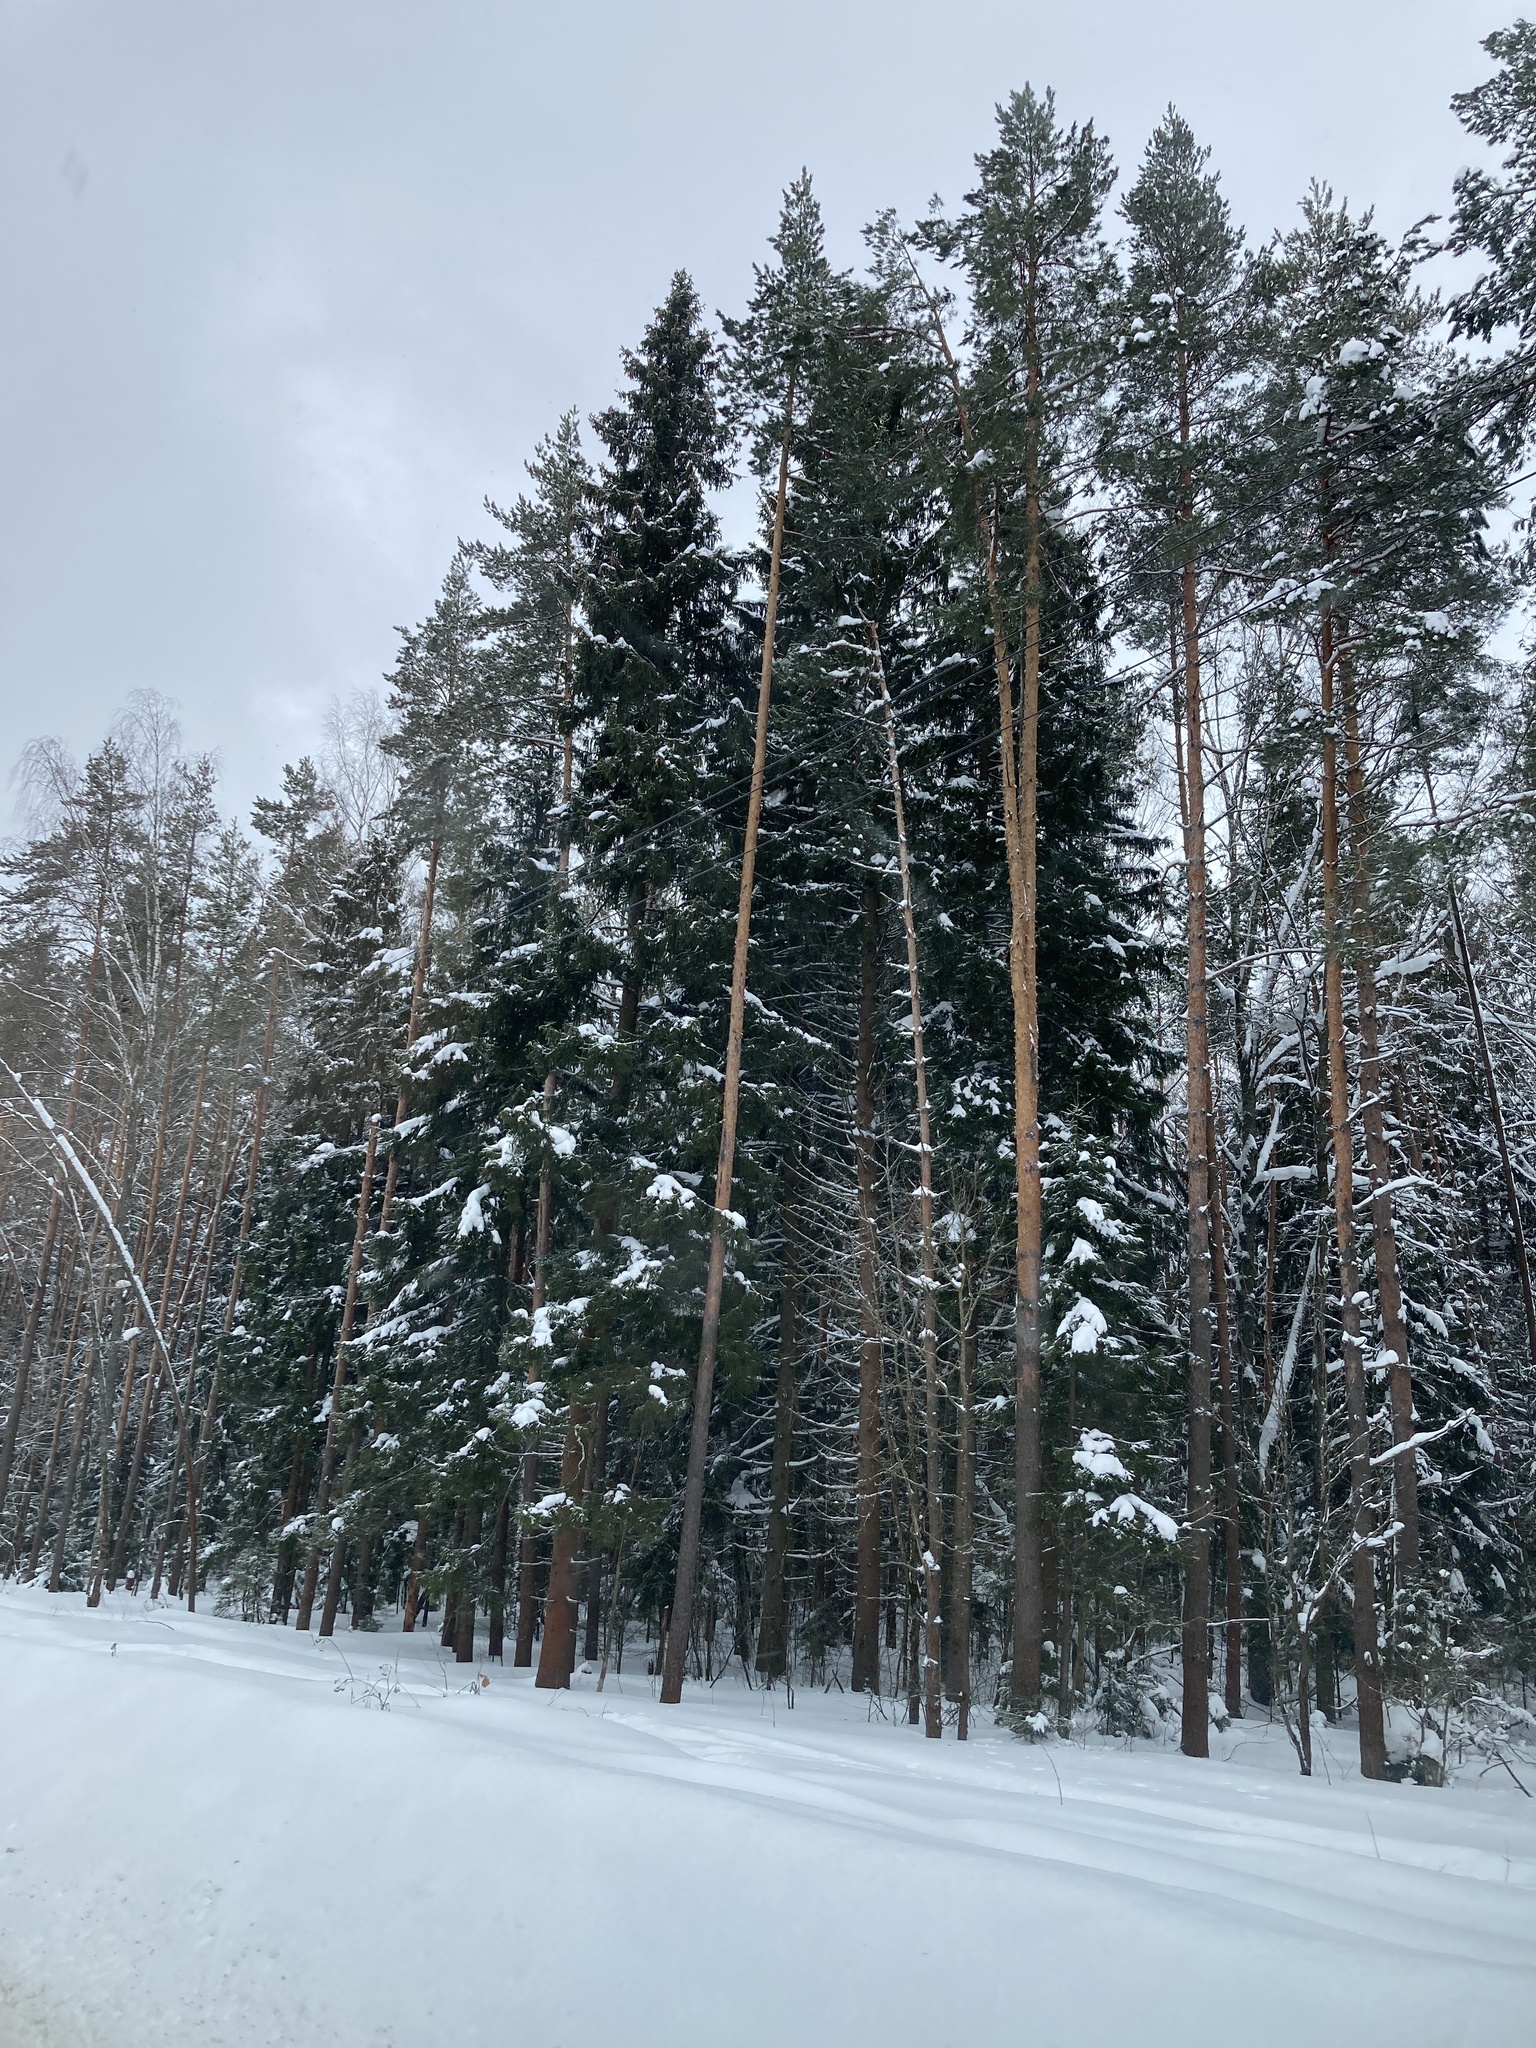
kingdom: Plantae
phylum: Tracheophyta
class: Pinopsida
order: Pinales
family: Pinaceae
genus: Pinus
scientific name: Pinus sylvestris
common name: Scots pine
